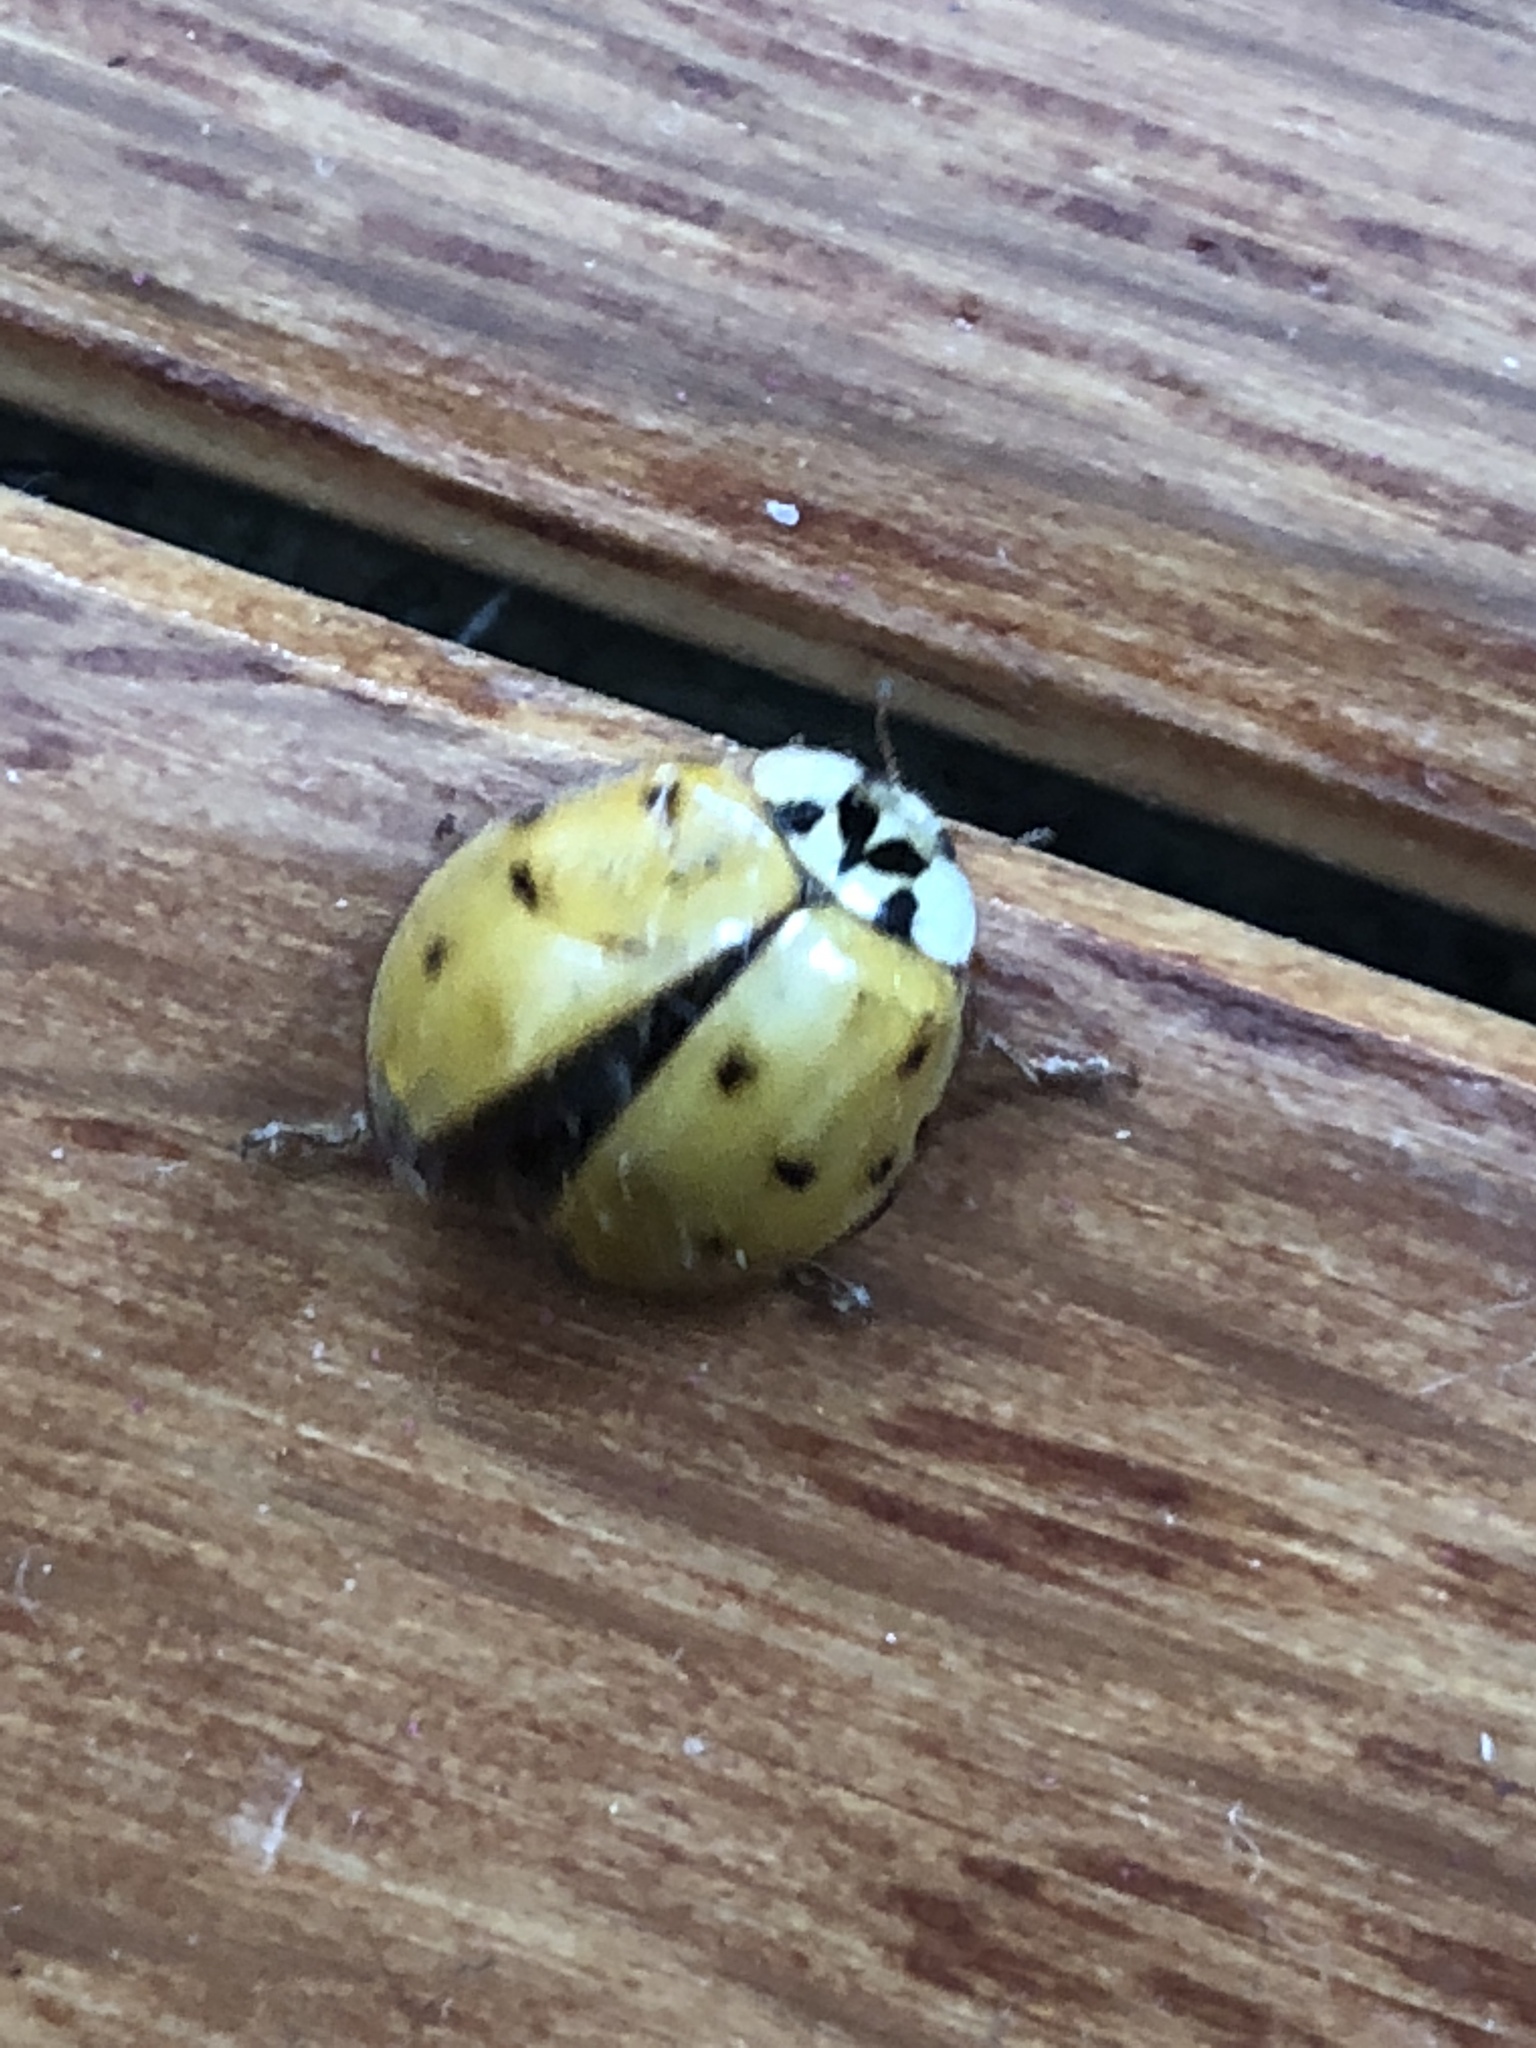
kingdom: Animalia
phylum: Arthropoda
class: Insecta
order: Coleoptera
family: Coccinellidae
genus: Harmonia
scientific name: Harmonia axyridis
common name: Harlequin ladybird
